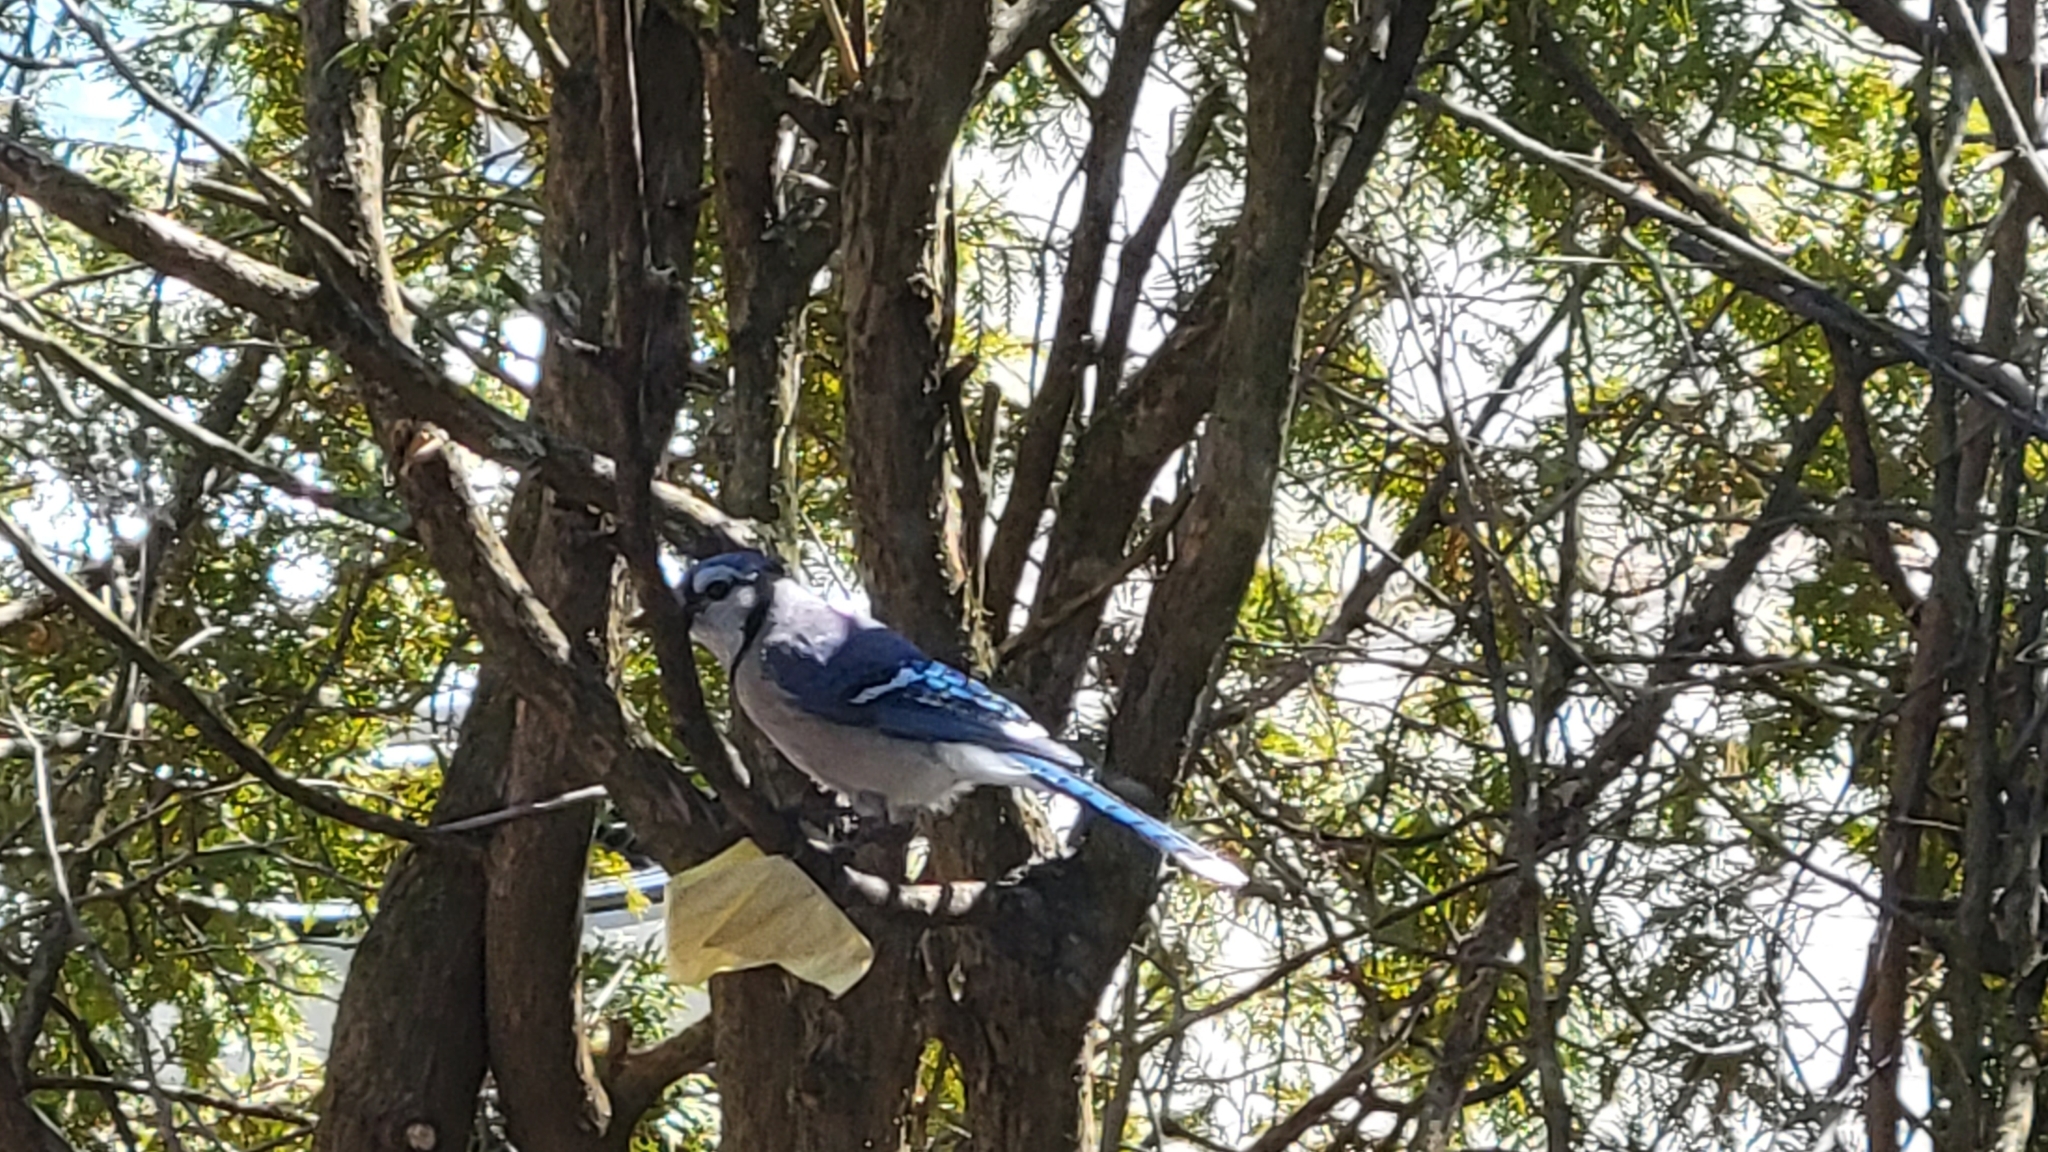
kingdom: Animalia
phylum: Chordata
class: Aves
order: Passeriformes
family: Corvidae
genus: Cyanocitta
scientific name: Cyanocitta cristata
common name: Blue jay
